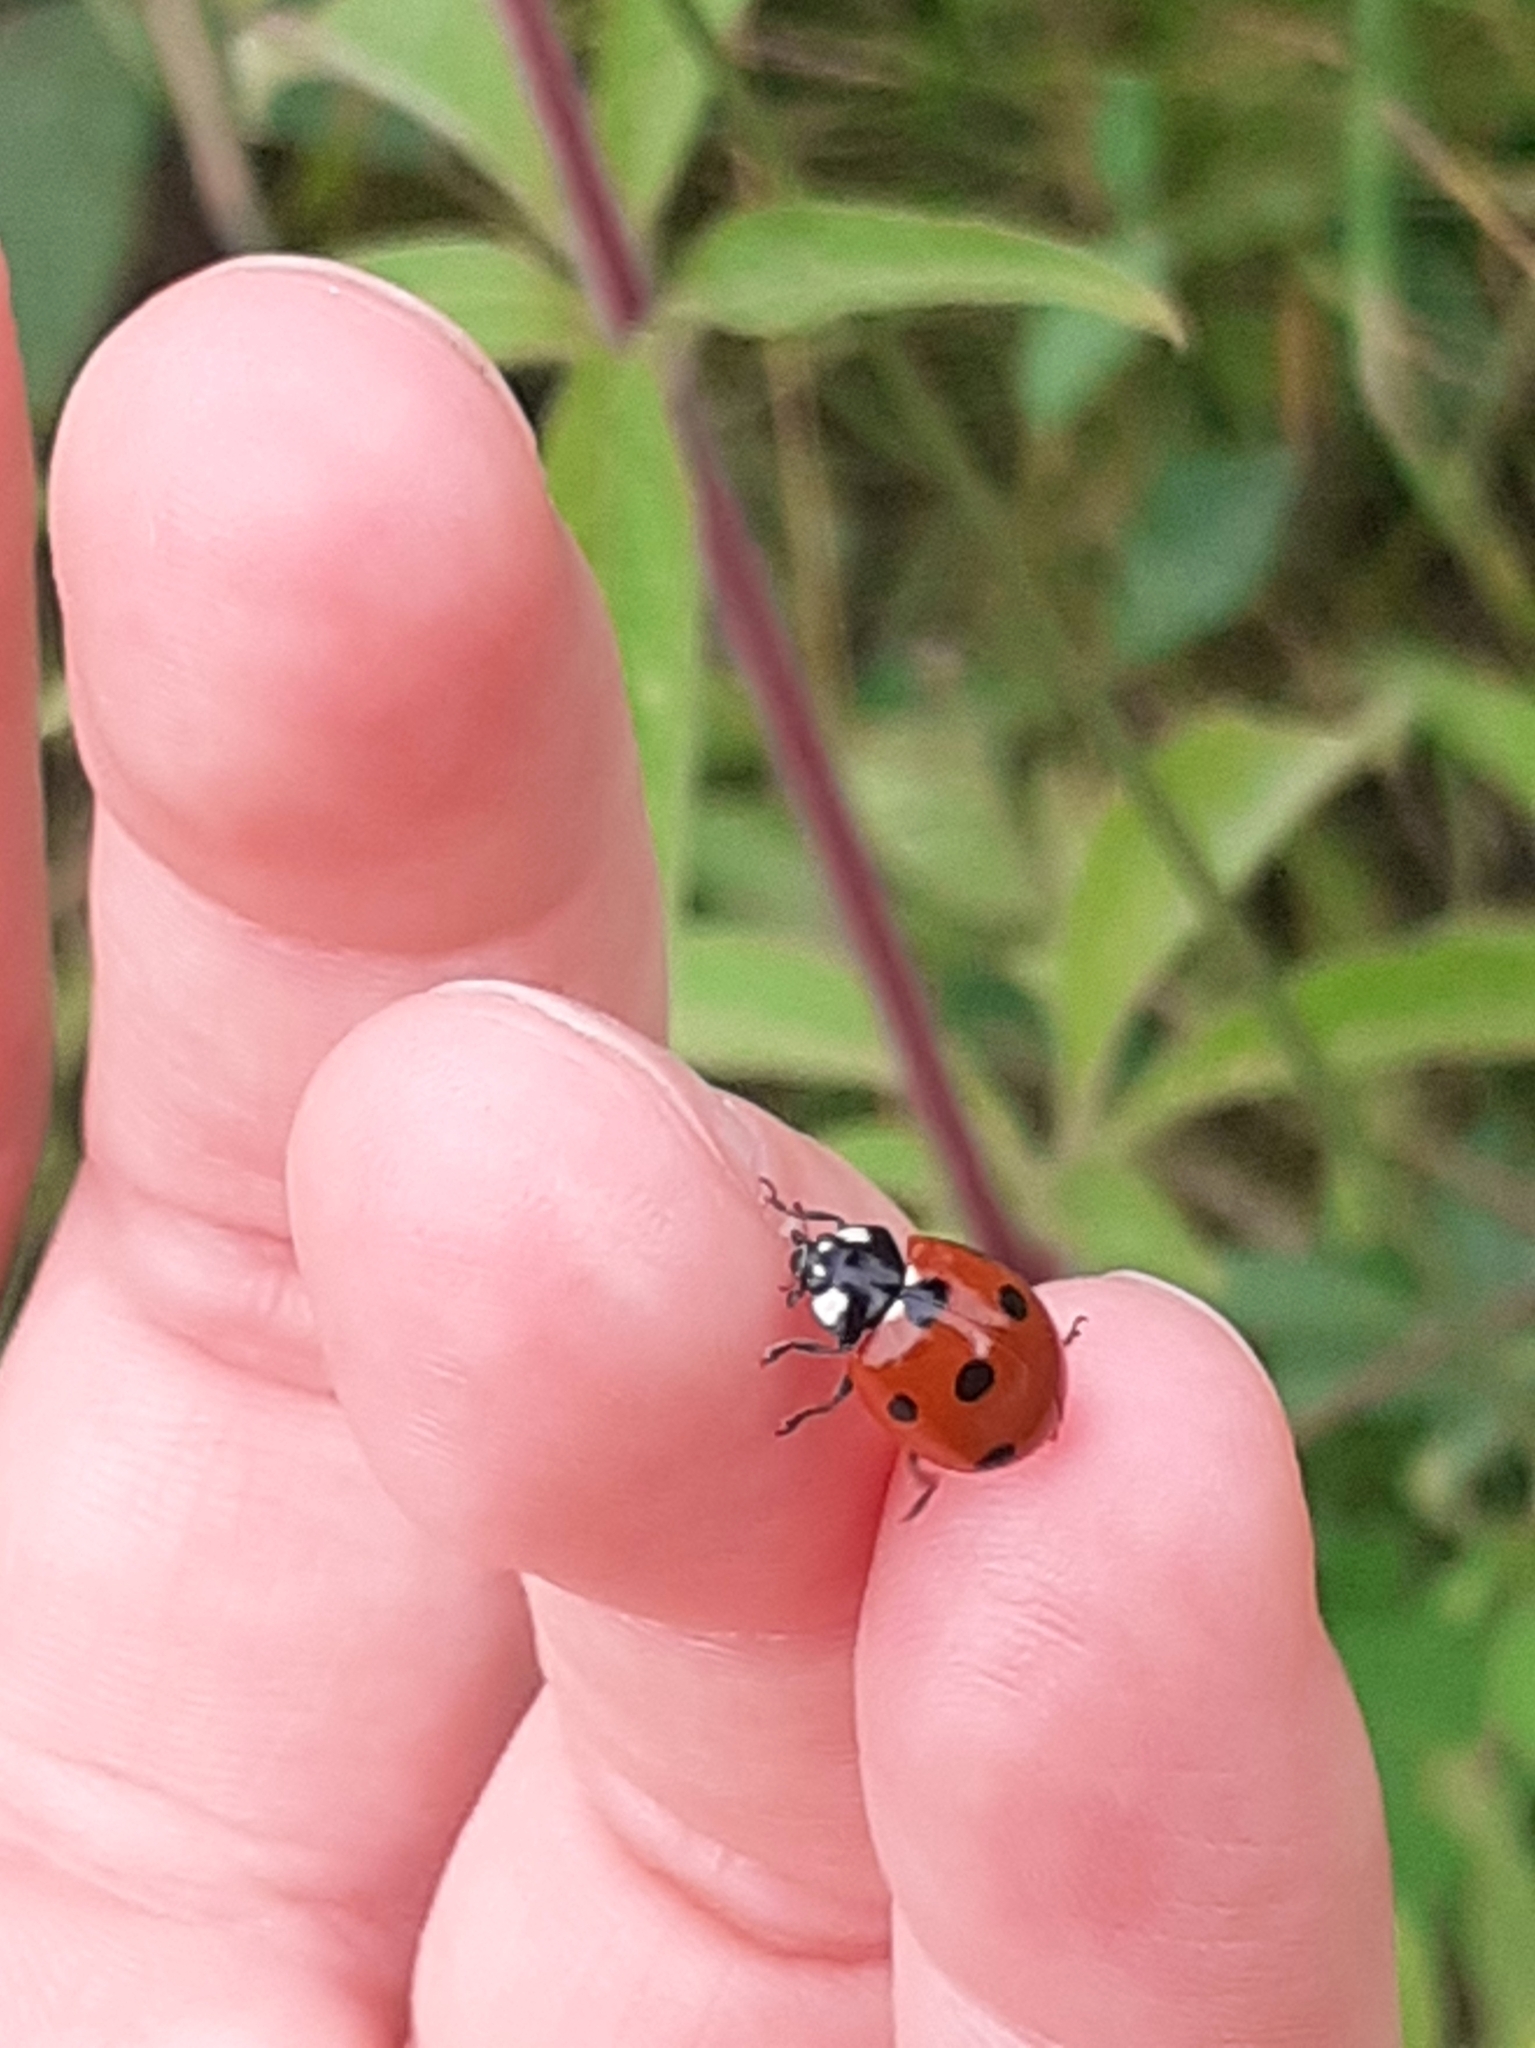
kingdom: Animalia
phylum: Arthropoda
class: Insecta
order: Coleoptera
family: Coccinellidae
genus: Coccinella
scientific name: Coccinella septempunctata
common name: Sevenspotted lady beetle
